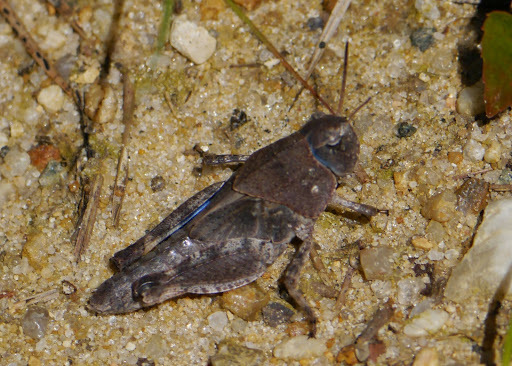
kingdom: Animalia
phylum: Arthropoda
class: Insecta
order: Orthoptera
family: Acrididae
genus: Pardalophora
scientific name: Pardalophora phoenicoptera
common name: Orange-winged grasshopper
